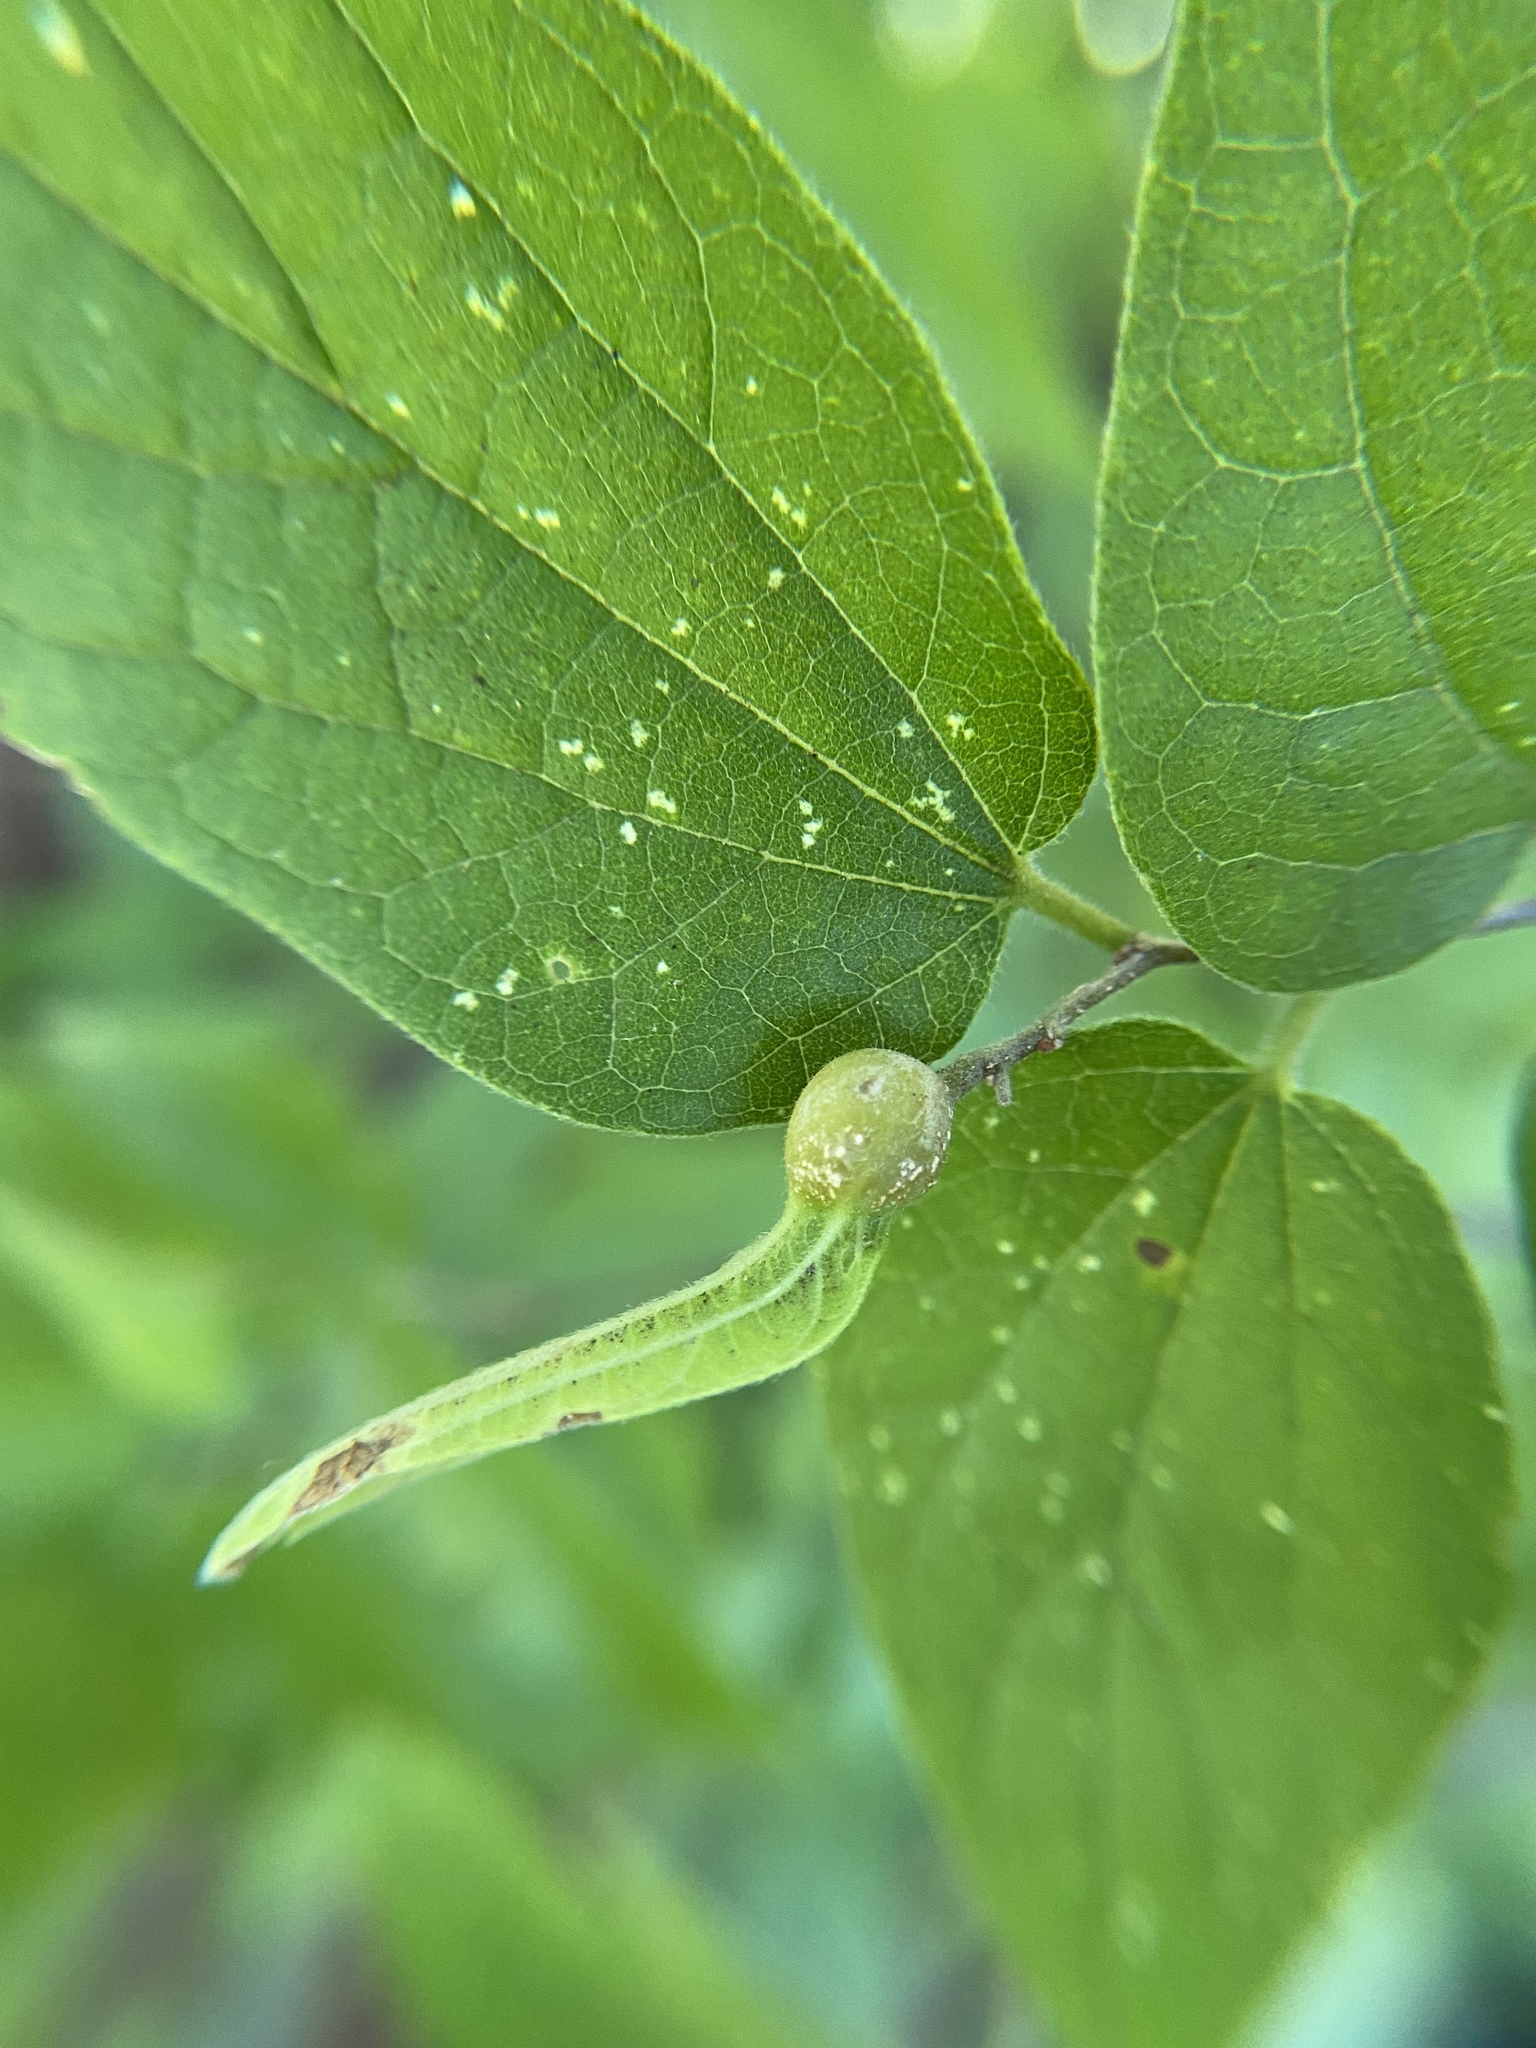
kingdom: Animalia
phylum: Arthropoda
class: Insecta
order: Hemiptera
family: Aphalaridae
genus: Pachypsylla
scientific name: Pachypsylla venusta
